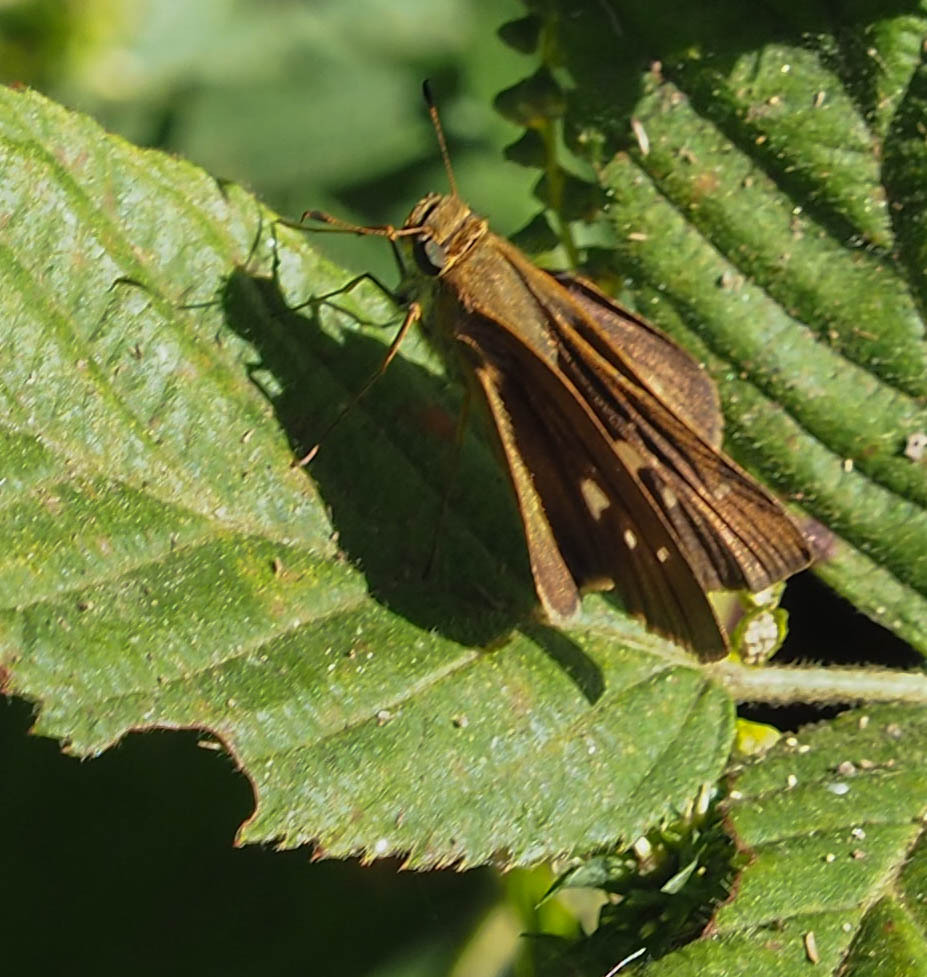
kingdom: Animalia
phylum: Arthropoda
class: Insecta
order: Lepidoptera
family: Hesperiidae
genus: Panoquina
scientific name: Panoquina ocola
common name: Ocola skipper
